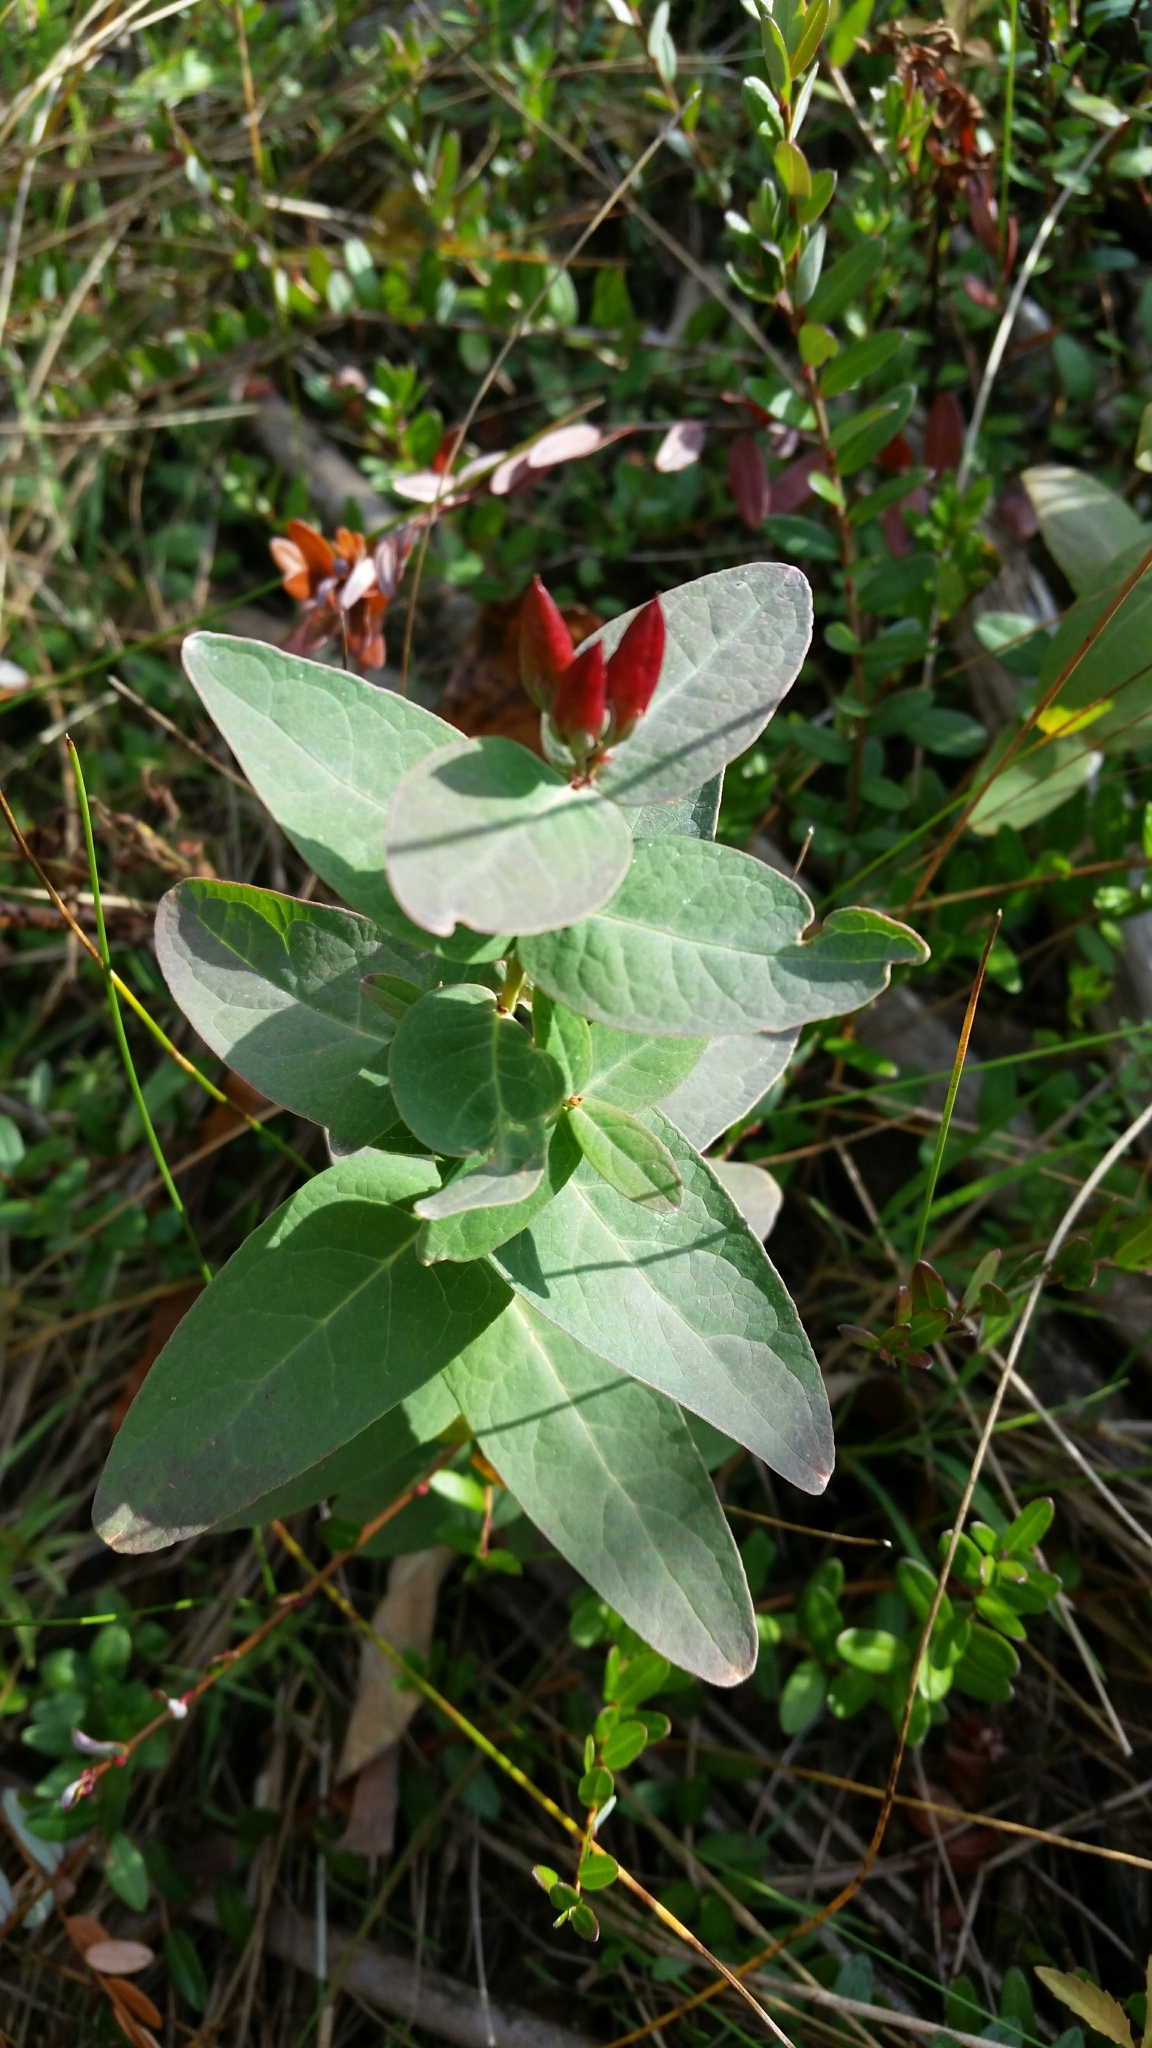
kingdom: Plantae
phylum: Tracheophyta
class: Magnoliopsida
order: Malpighiales
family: Hypericaceae
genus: Triadenum
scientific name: Triadenum virginicum
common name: Marsh st. john's-wort
